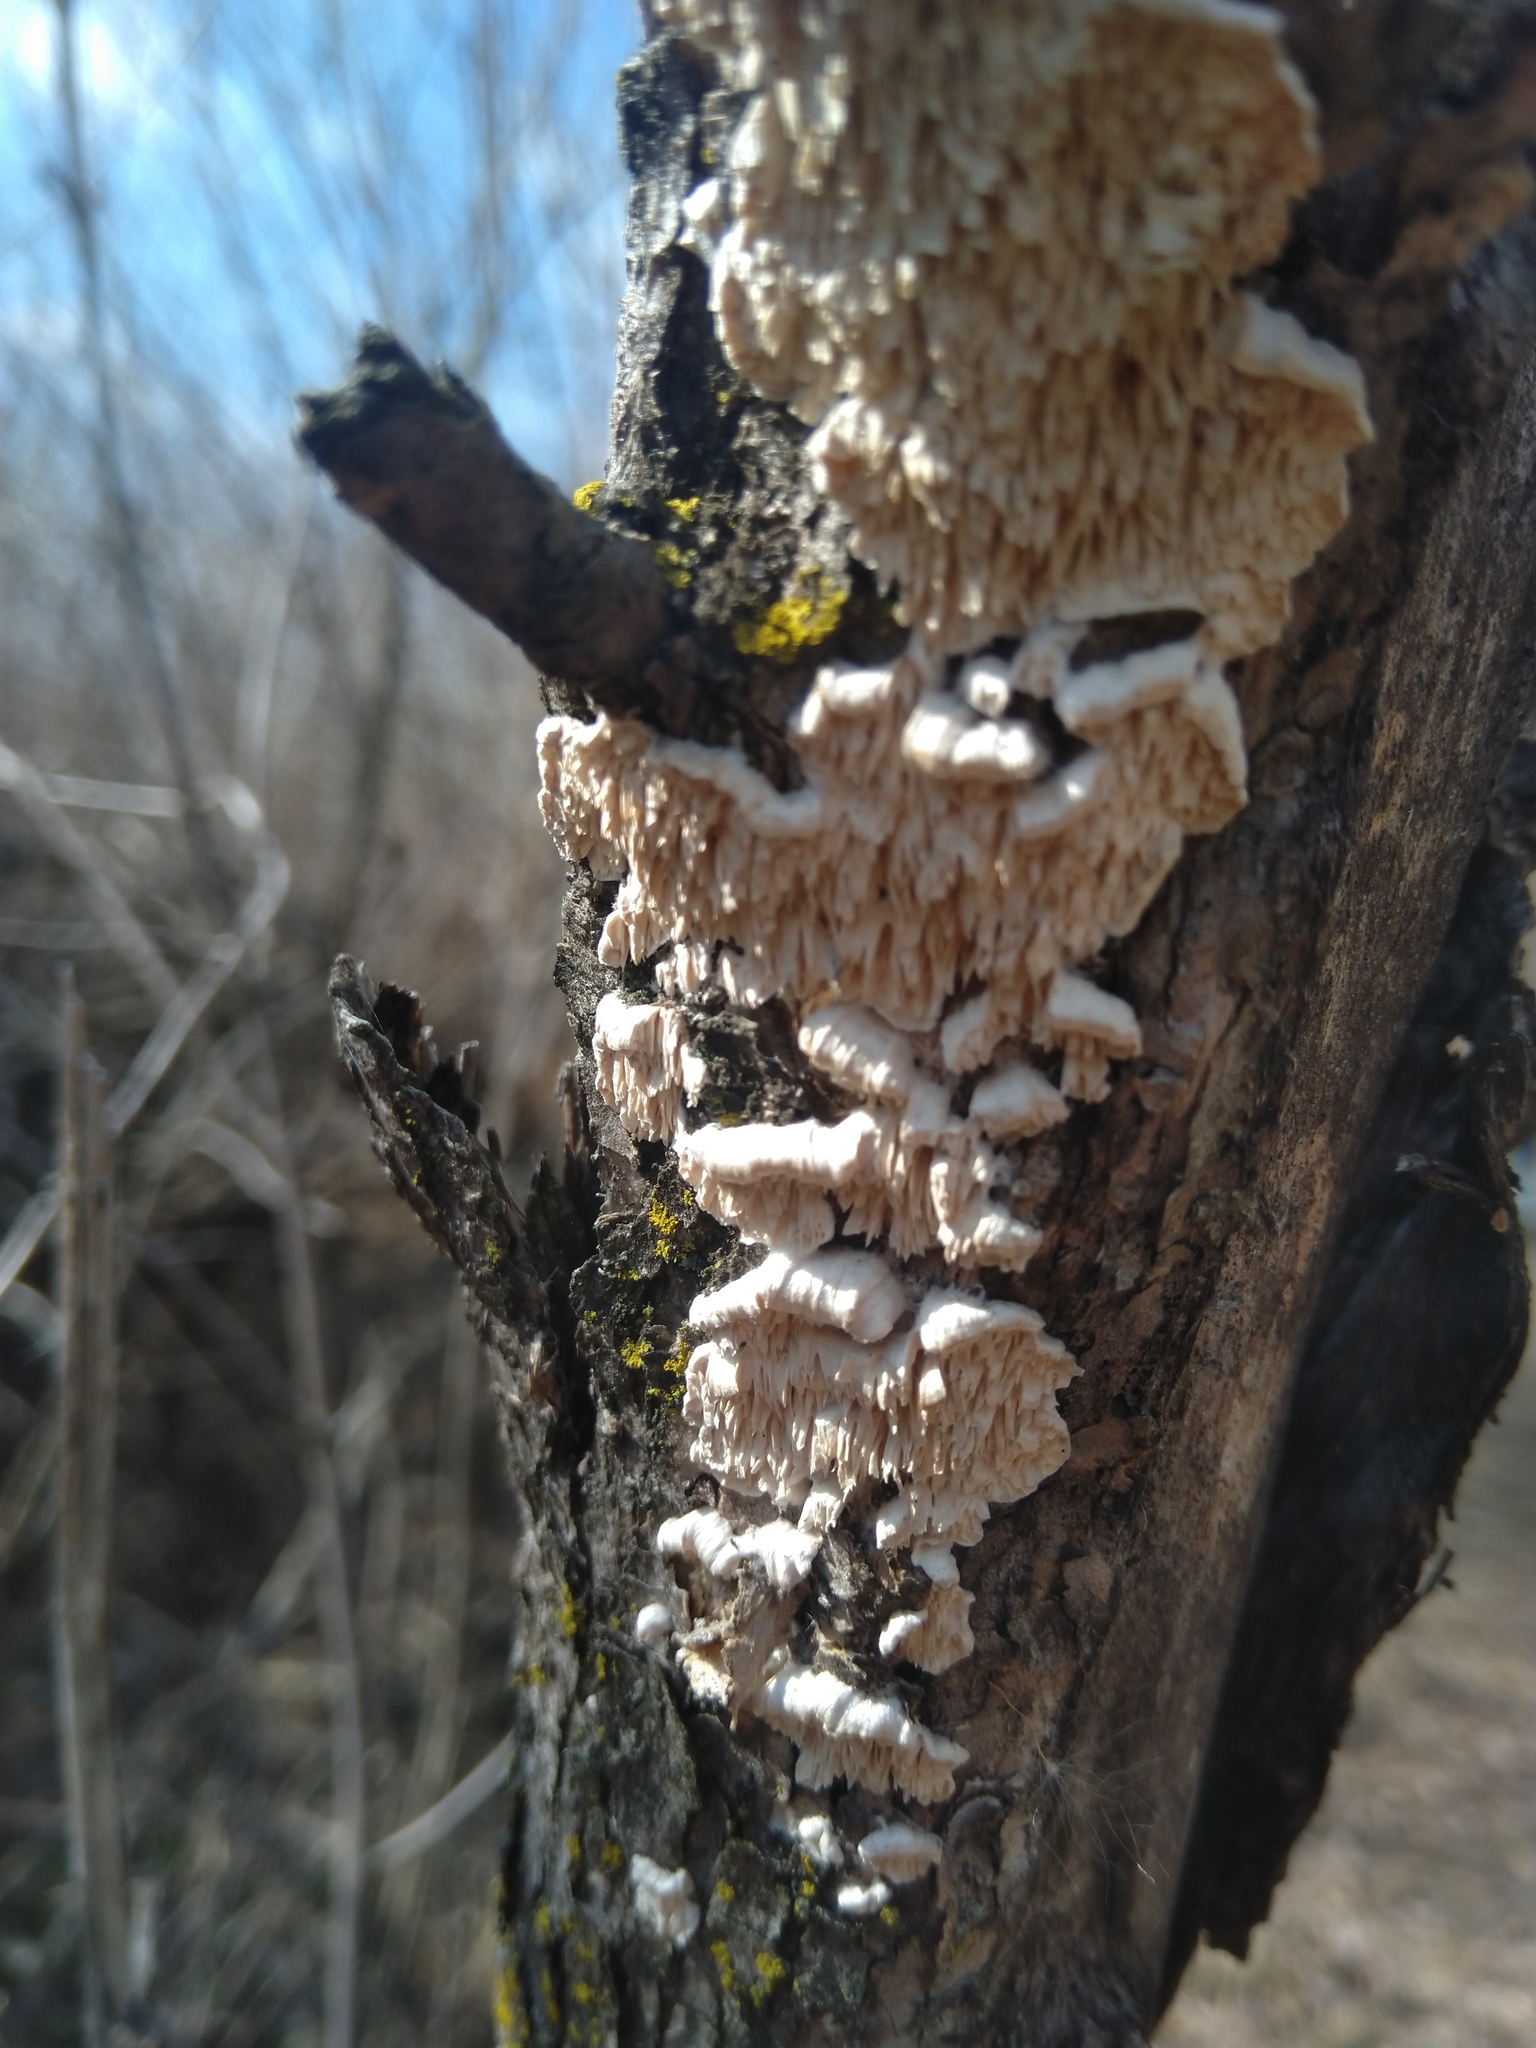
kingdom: Fungi
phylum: Basidiomycota
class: Agaricomycetes
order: Polyporales
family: Irpicaceae
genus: Irpex
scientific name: Irpex lacteus
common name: Milk-white toothed polypore
